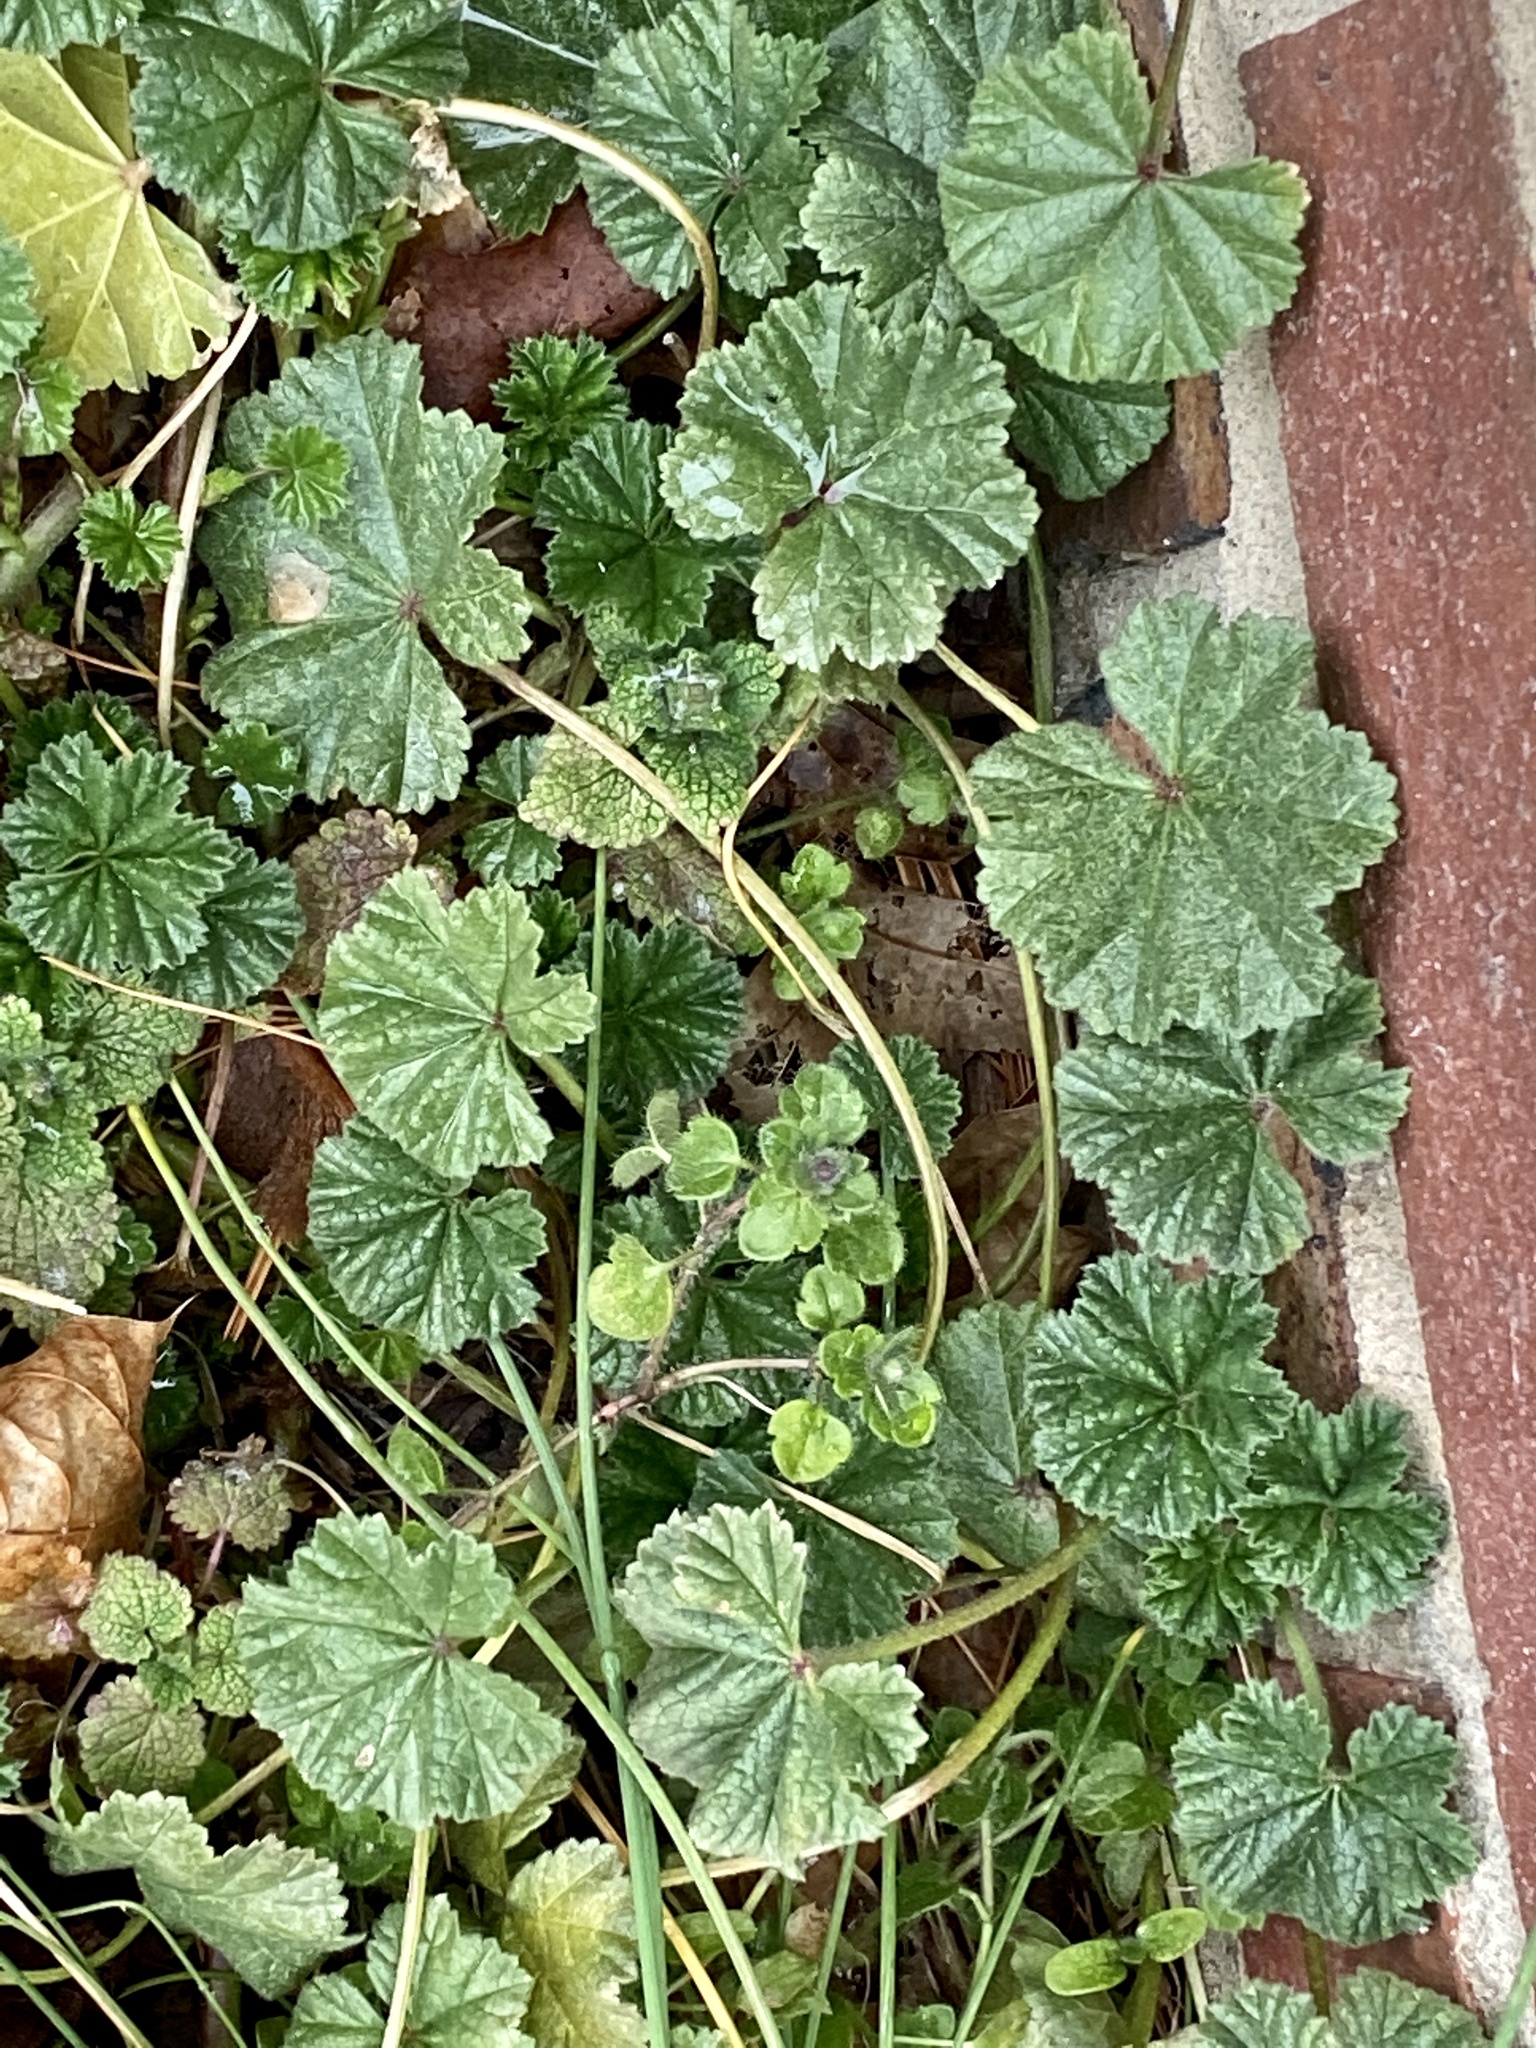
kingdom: Plantae
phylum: Tracheophyta
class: Magnoliopsida
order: Malvales
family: Malvaceae
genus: Malva
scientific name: Malva neglecta
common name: Common mallow
